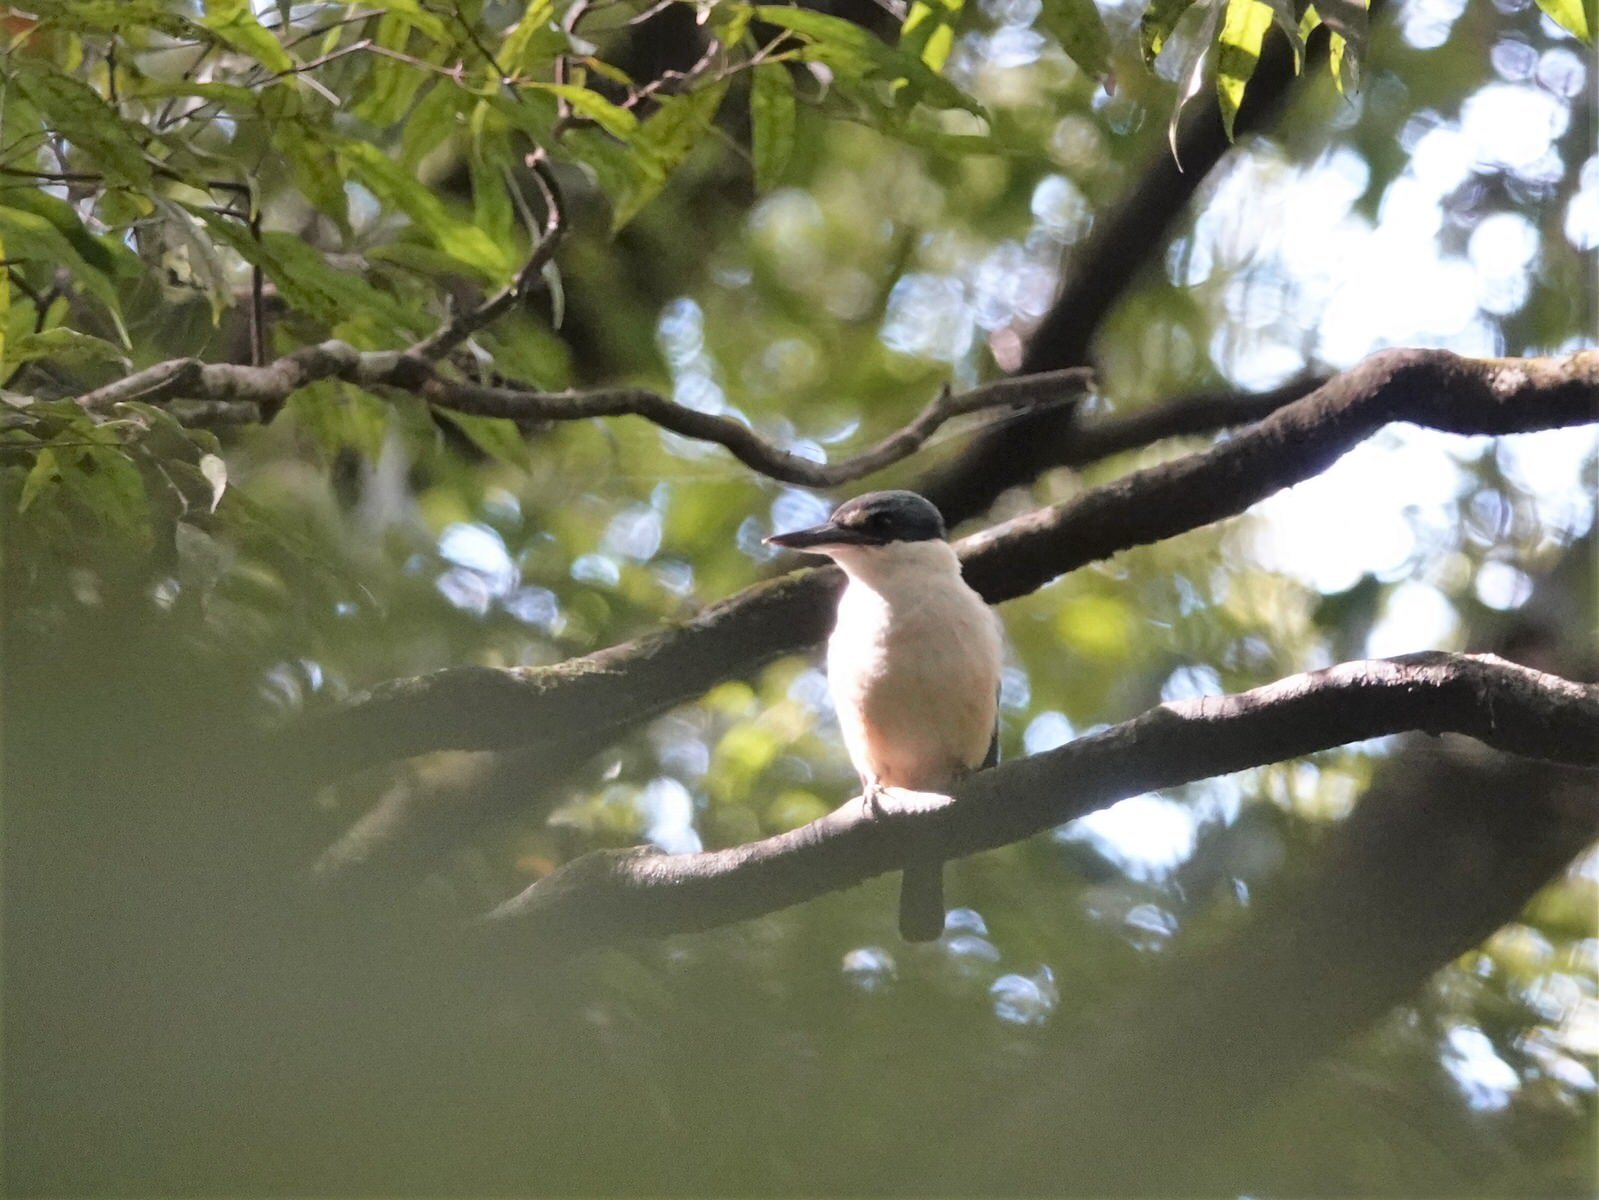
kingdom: Animalia
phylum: Chordata
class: Aves
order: Coraciiformes
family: Alcedinidae
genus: Todiramphus
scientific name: Todiramphus sanctus
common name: Sacred kingfisher
